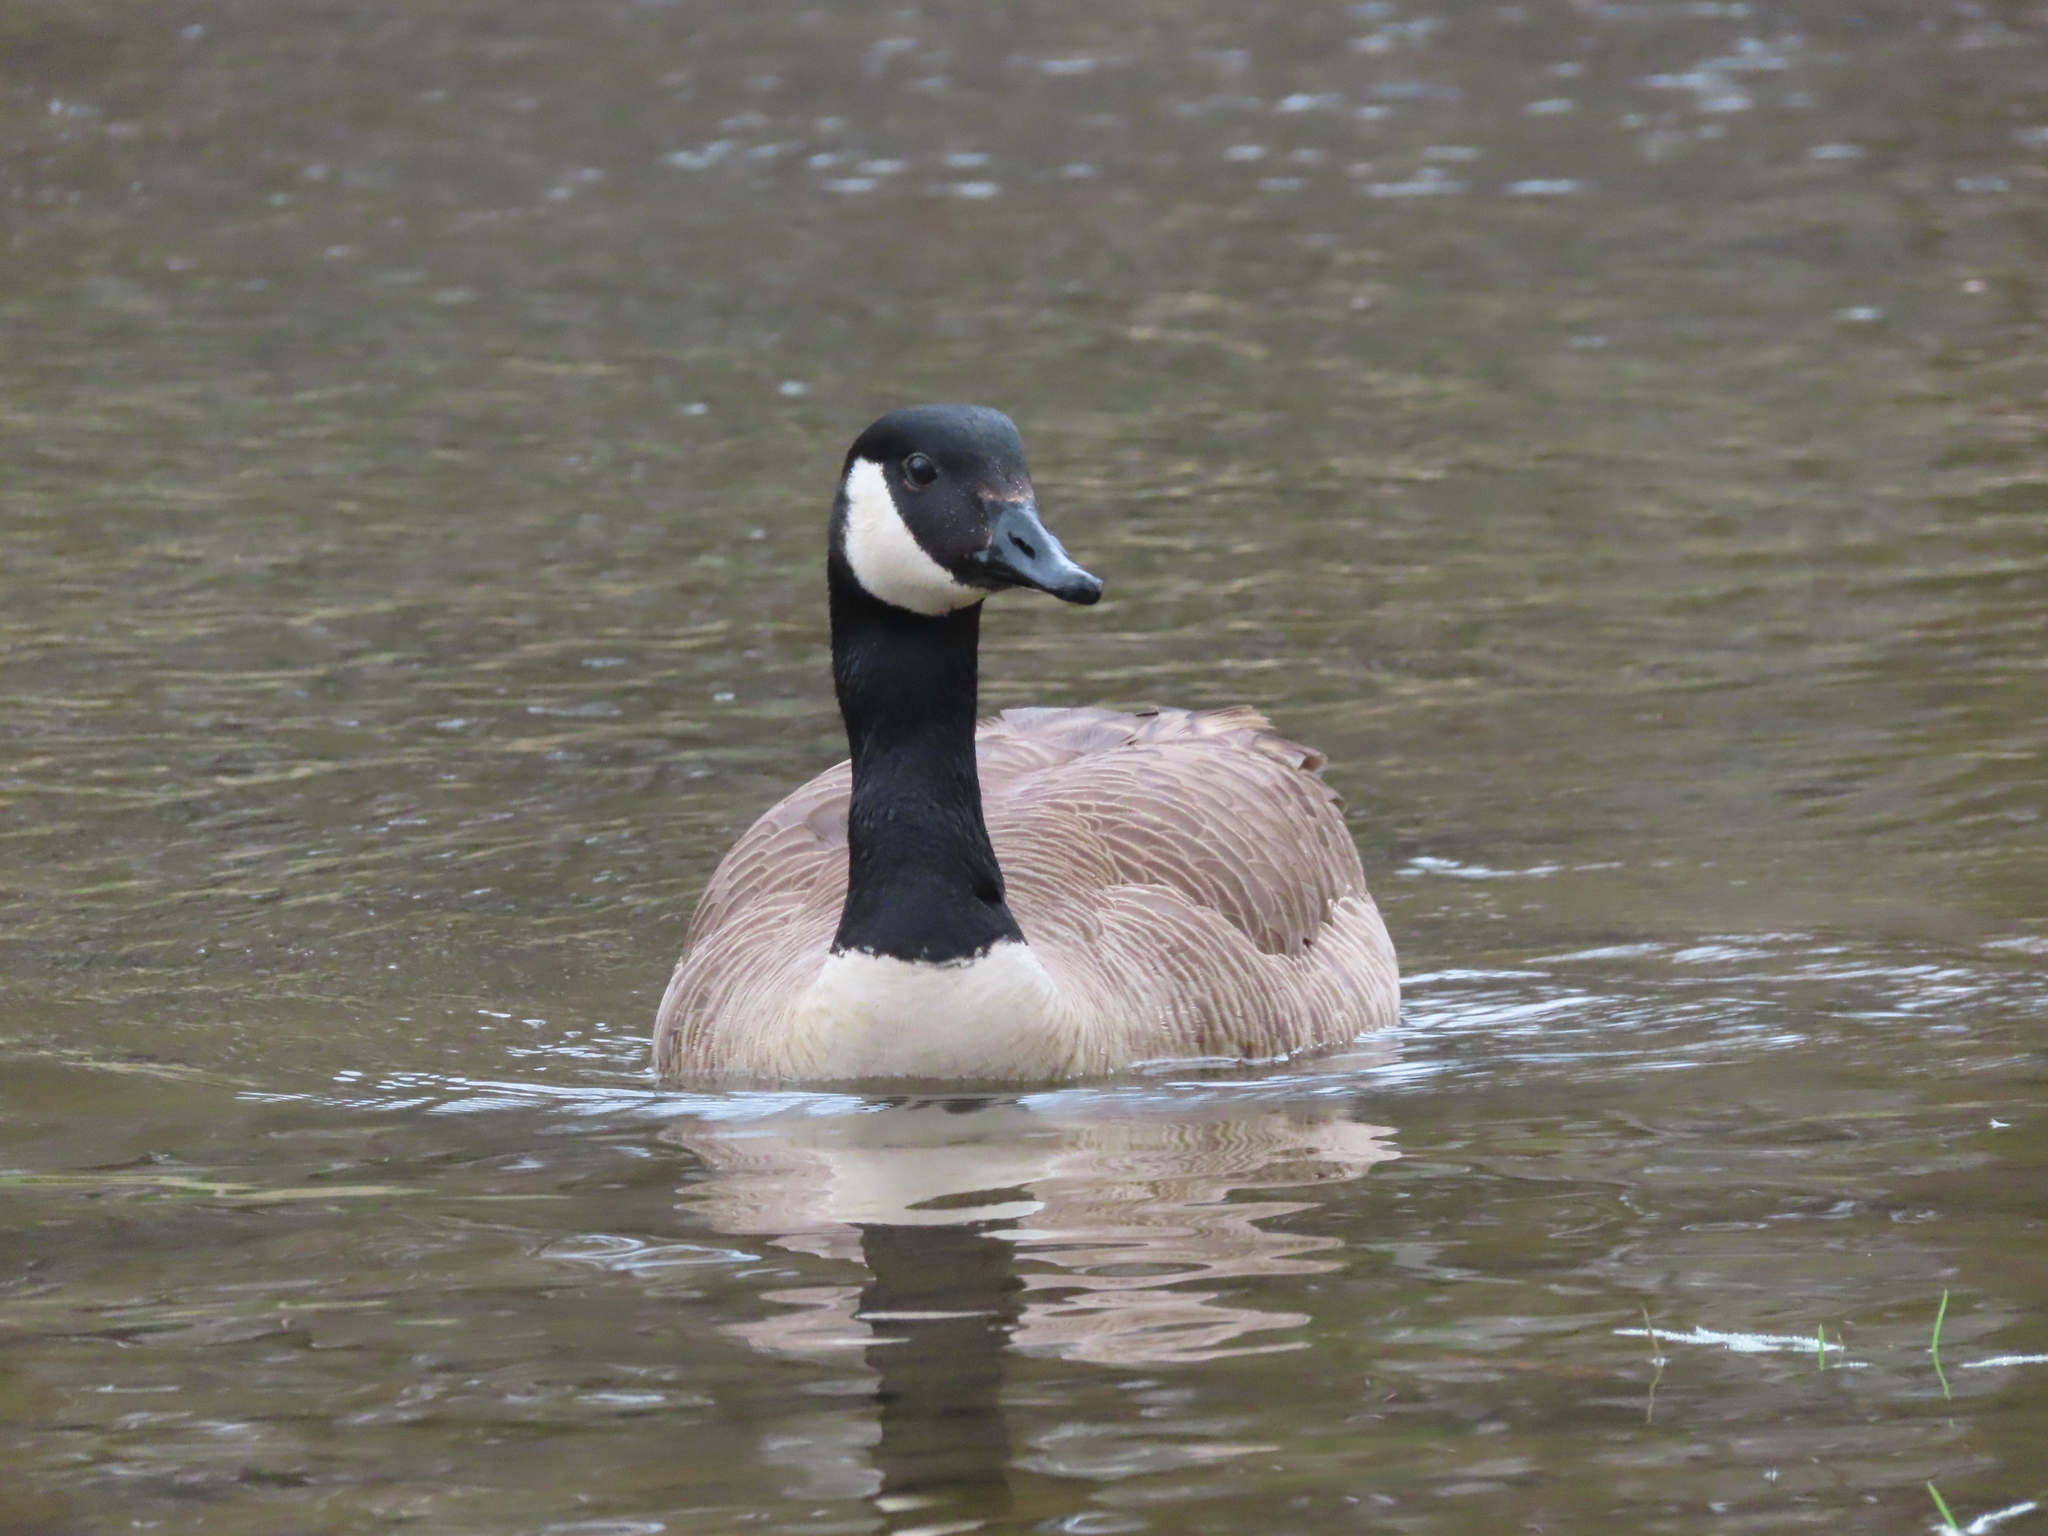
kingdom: Animalia
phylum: Chordata
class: Aves
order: Anseriformes
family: Anatidae
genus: Branta
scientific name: Branta canadensis
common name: Canada goose
